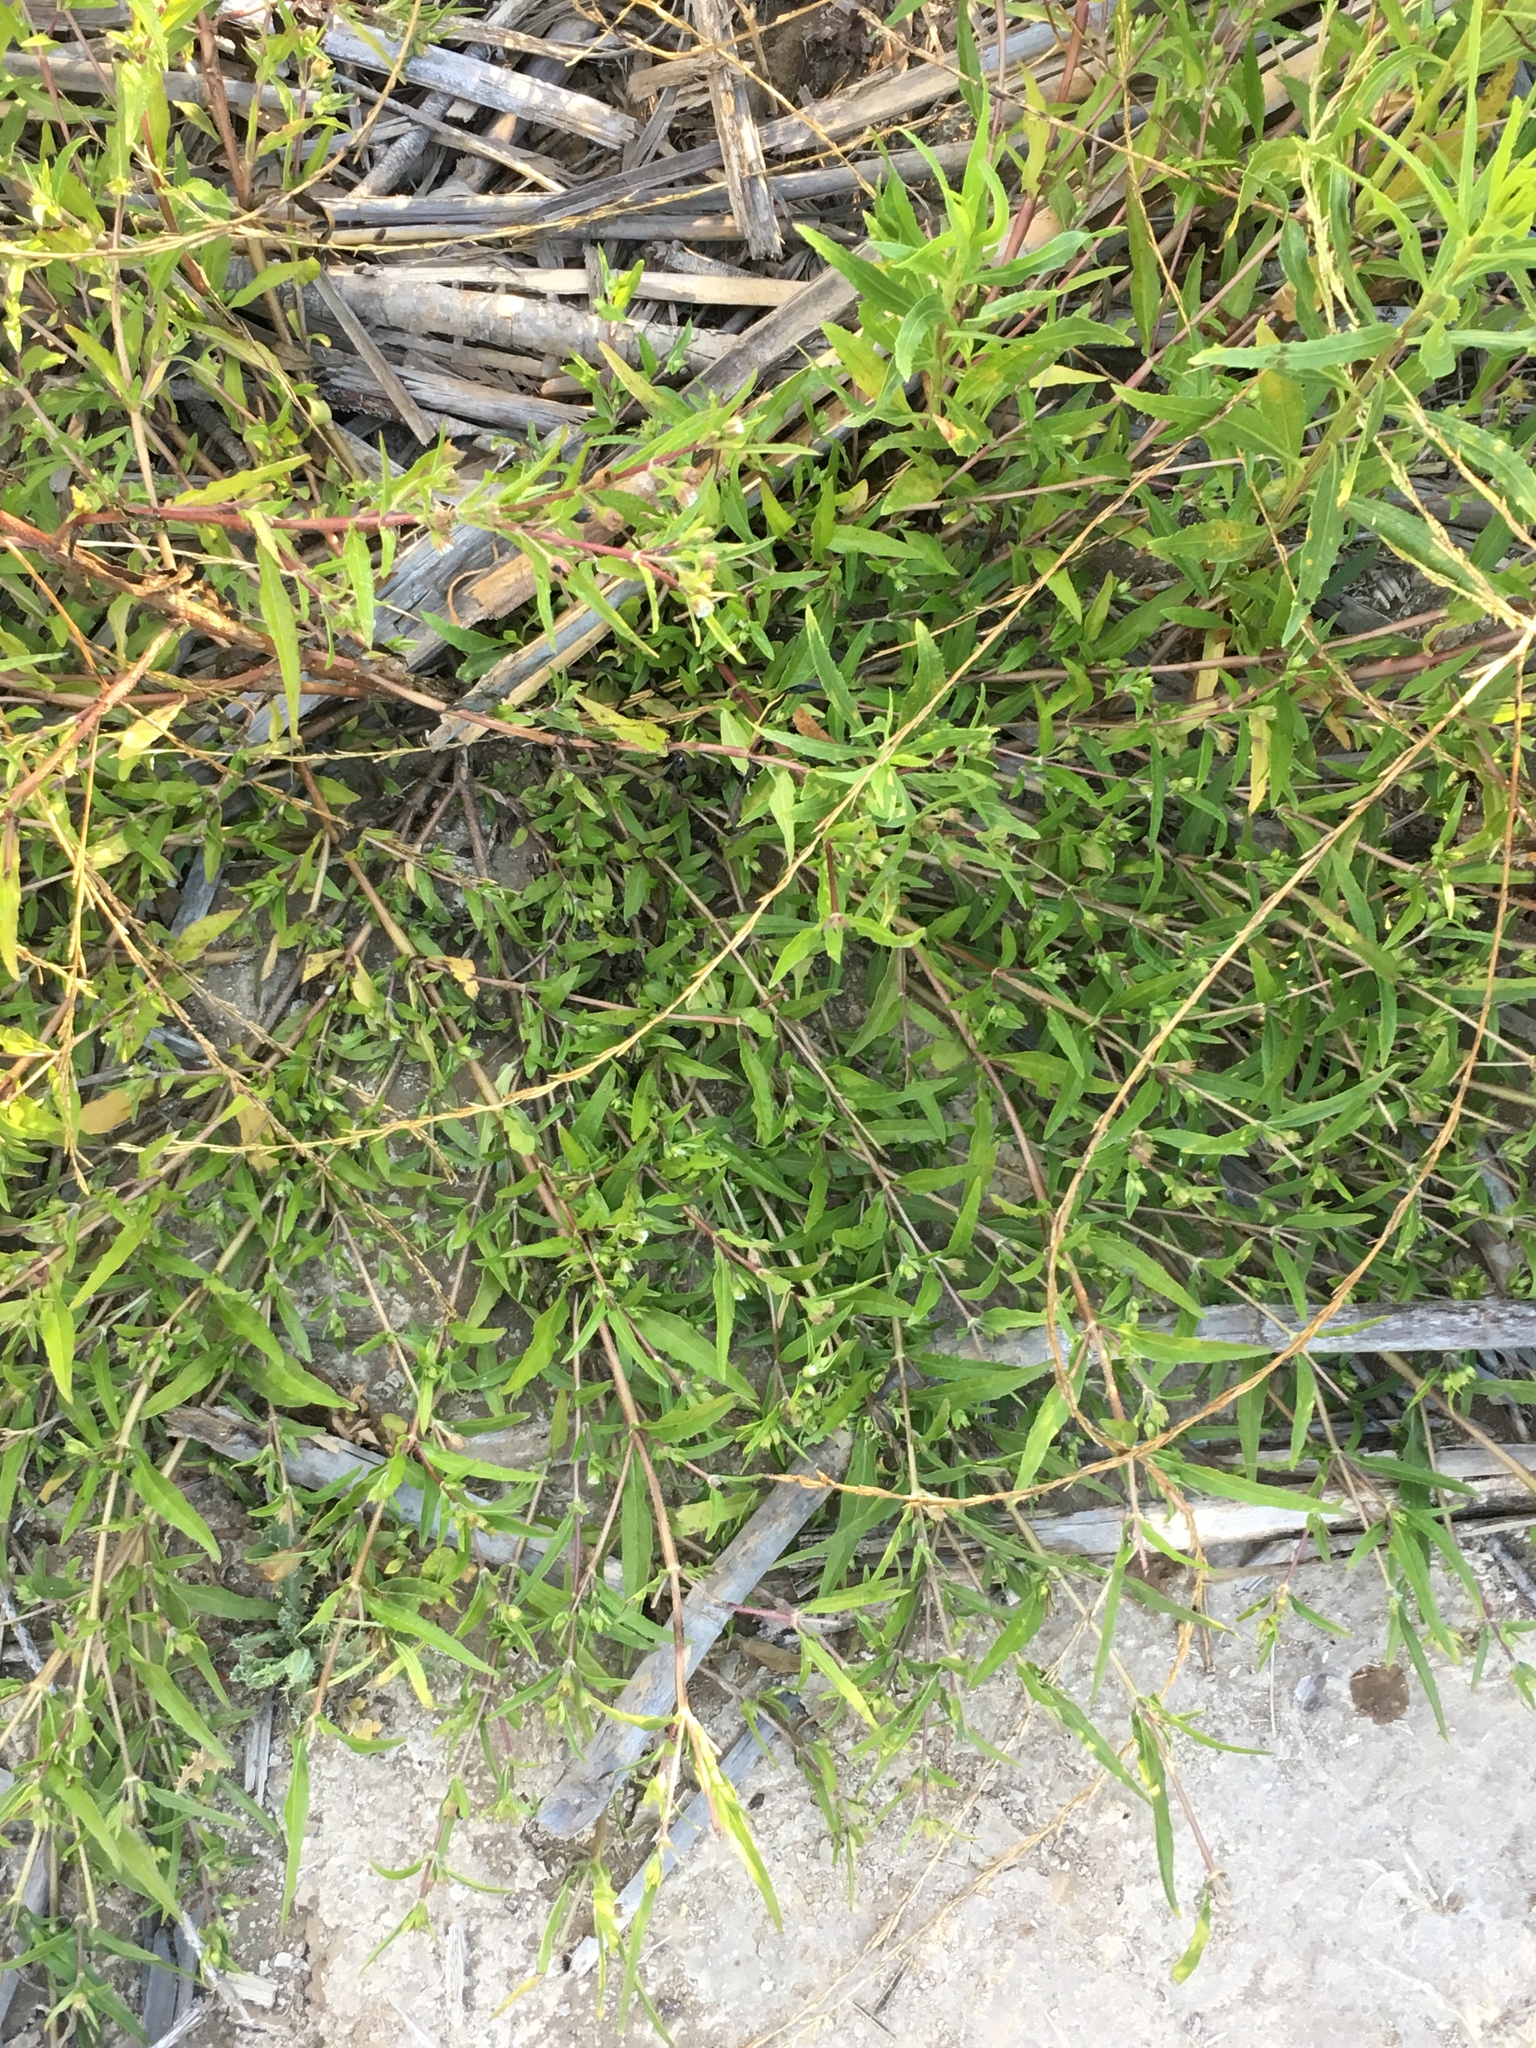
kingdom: Plantae
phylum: Tracheophyta
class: Magnoliopsida
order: Asterales
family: Asteraceae
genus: Eclipta
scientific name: Eclipta prostrata
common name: False daisy
